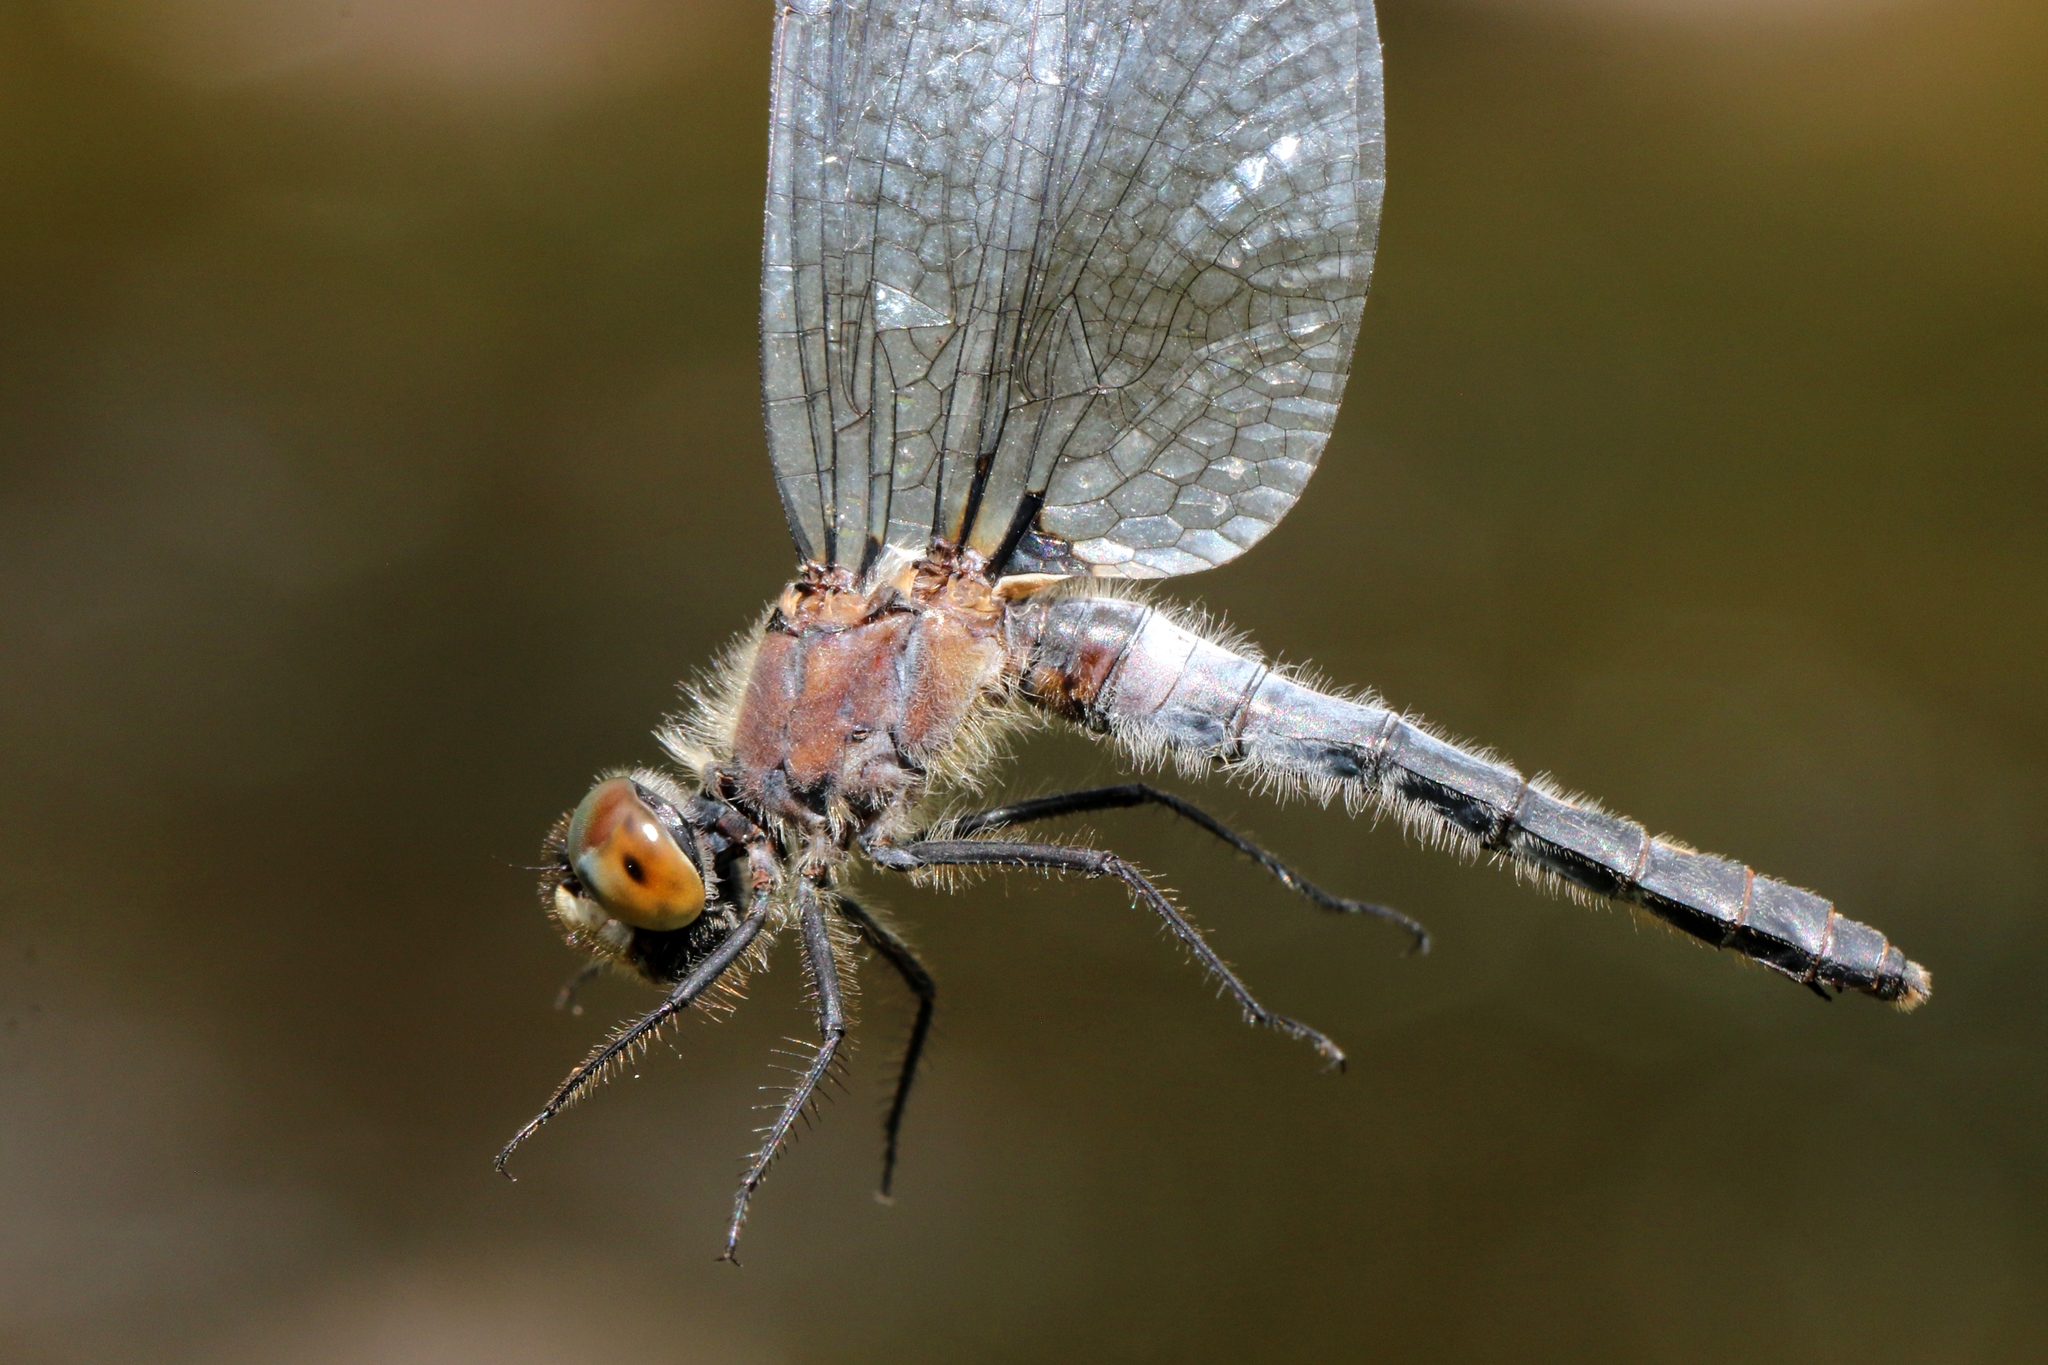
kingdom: Animalia
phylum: Arthropoda
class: Insecta
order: Odonata
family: Libellulidae
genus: Leucorrhinia
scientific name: Leucorrhinia frigida
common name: Frosted whiteface
